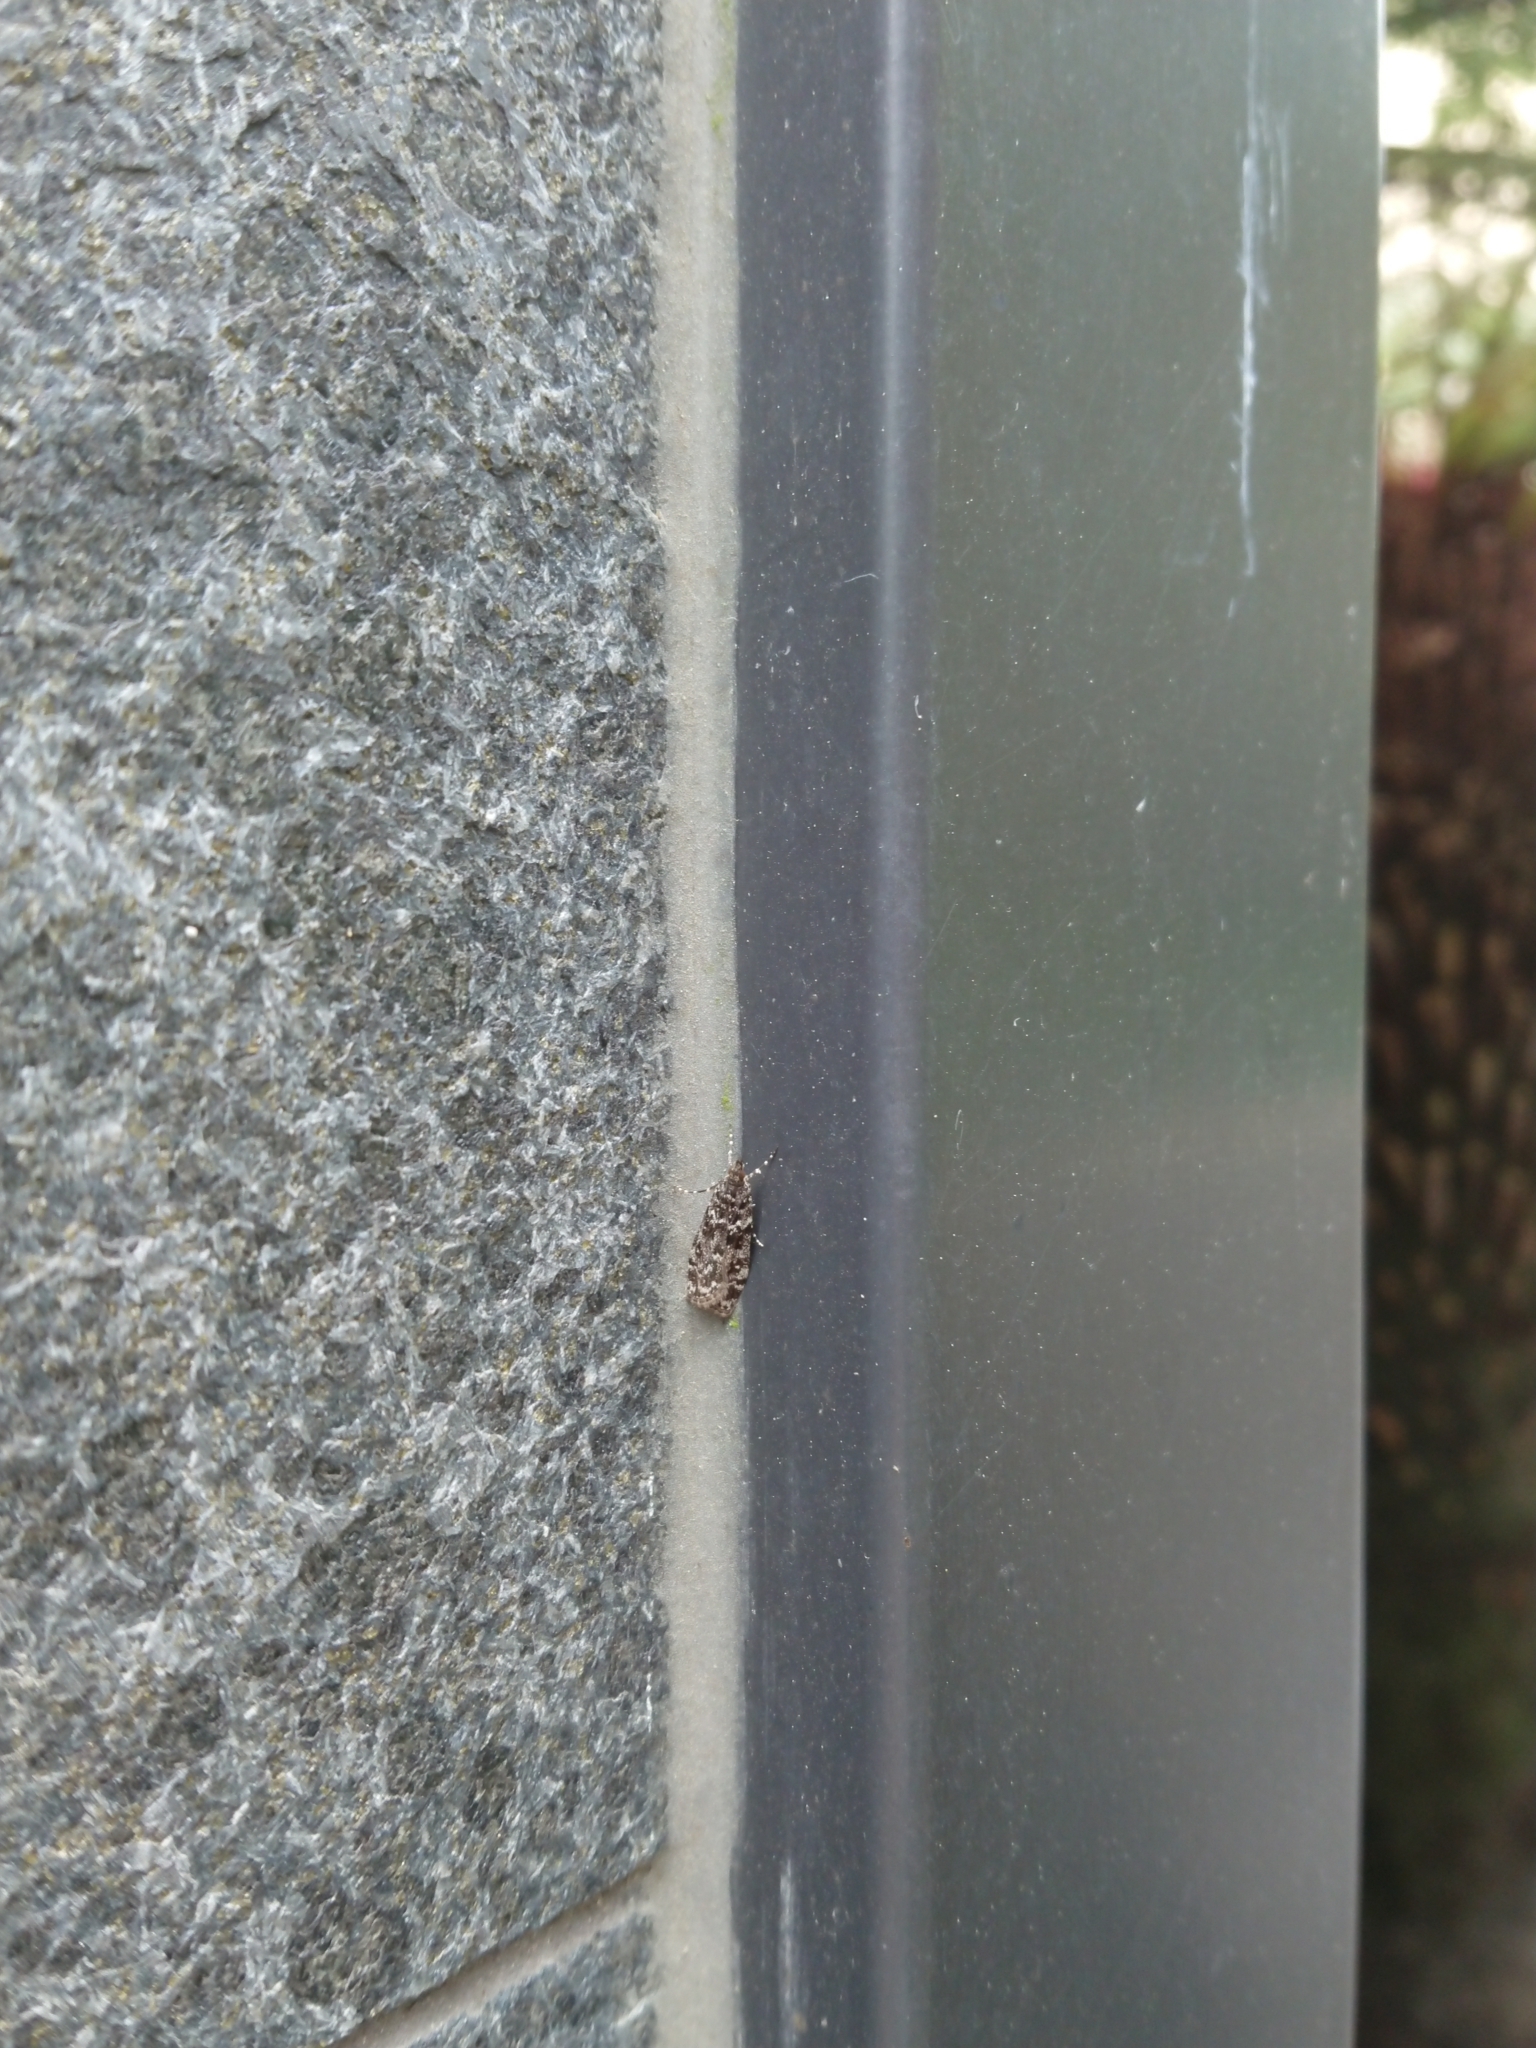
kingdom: Animalia
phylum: Arthropoda
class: Insecta
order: Lepidoptera
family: Crambidae
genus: Eudonia
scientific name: Eudonia philerga
